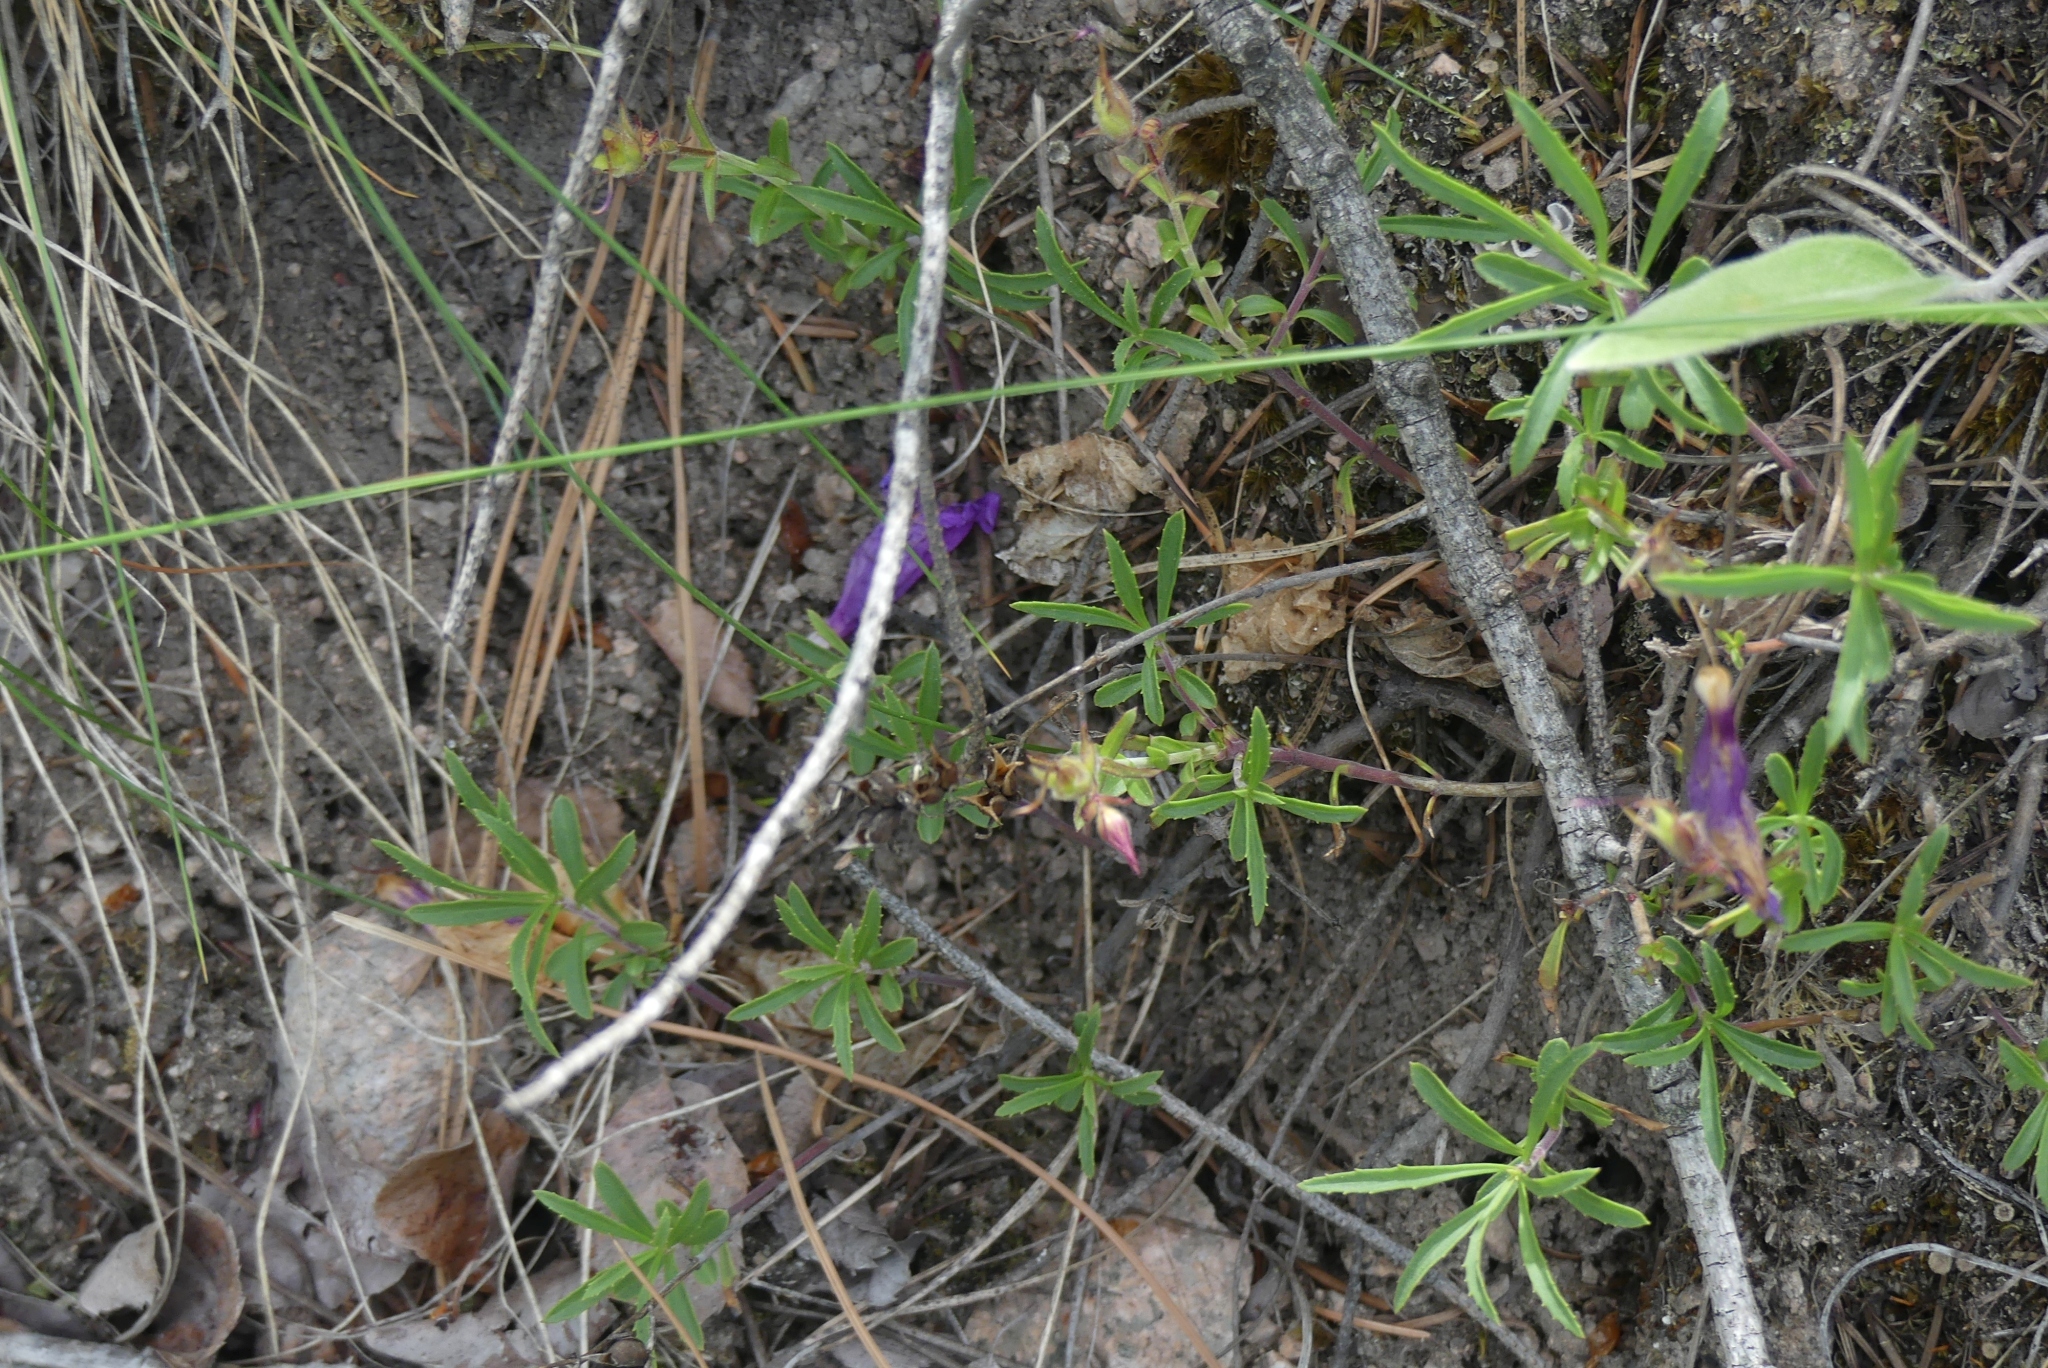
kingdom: Plantae
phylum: Tracheophyta
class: Magnoliopsida
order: Lamiales
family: Plantaginaceae
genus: Penstemon
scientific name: Penstemon fruticosus
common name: Bush penstemon
